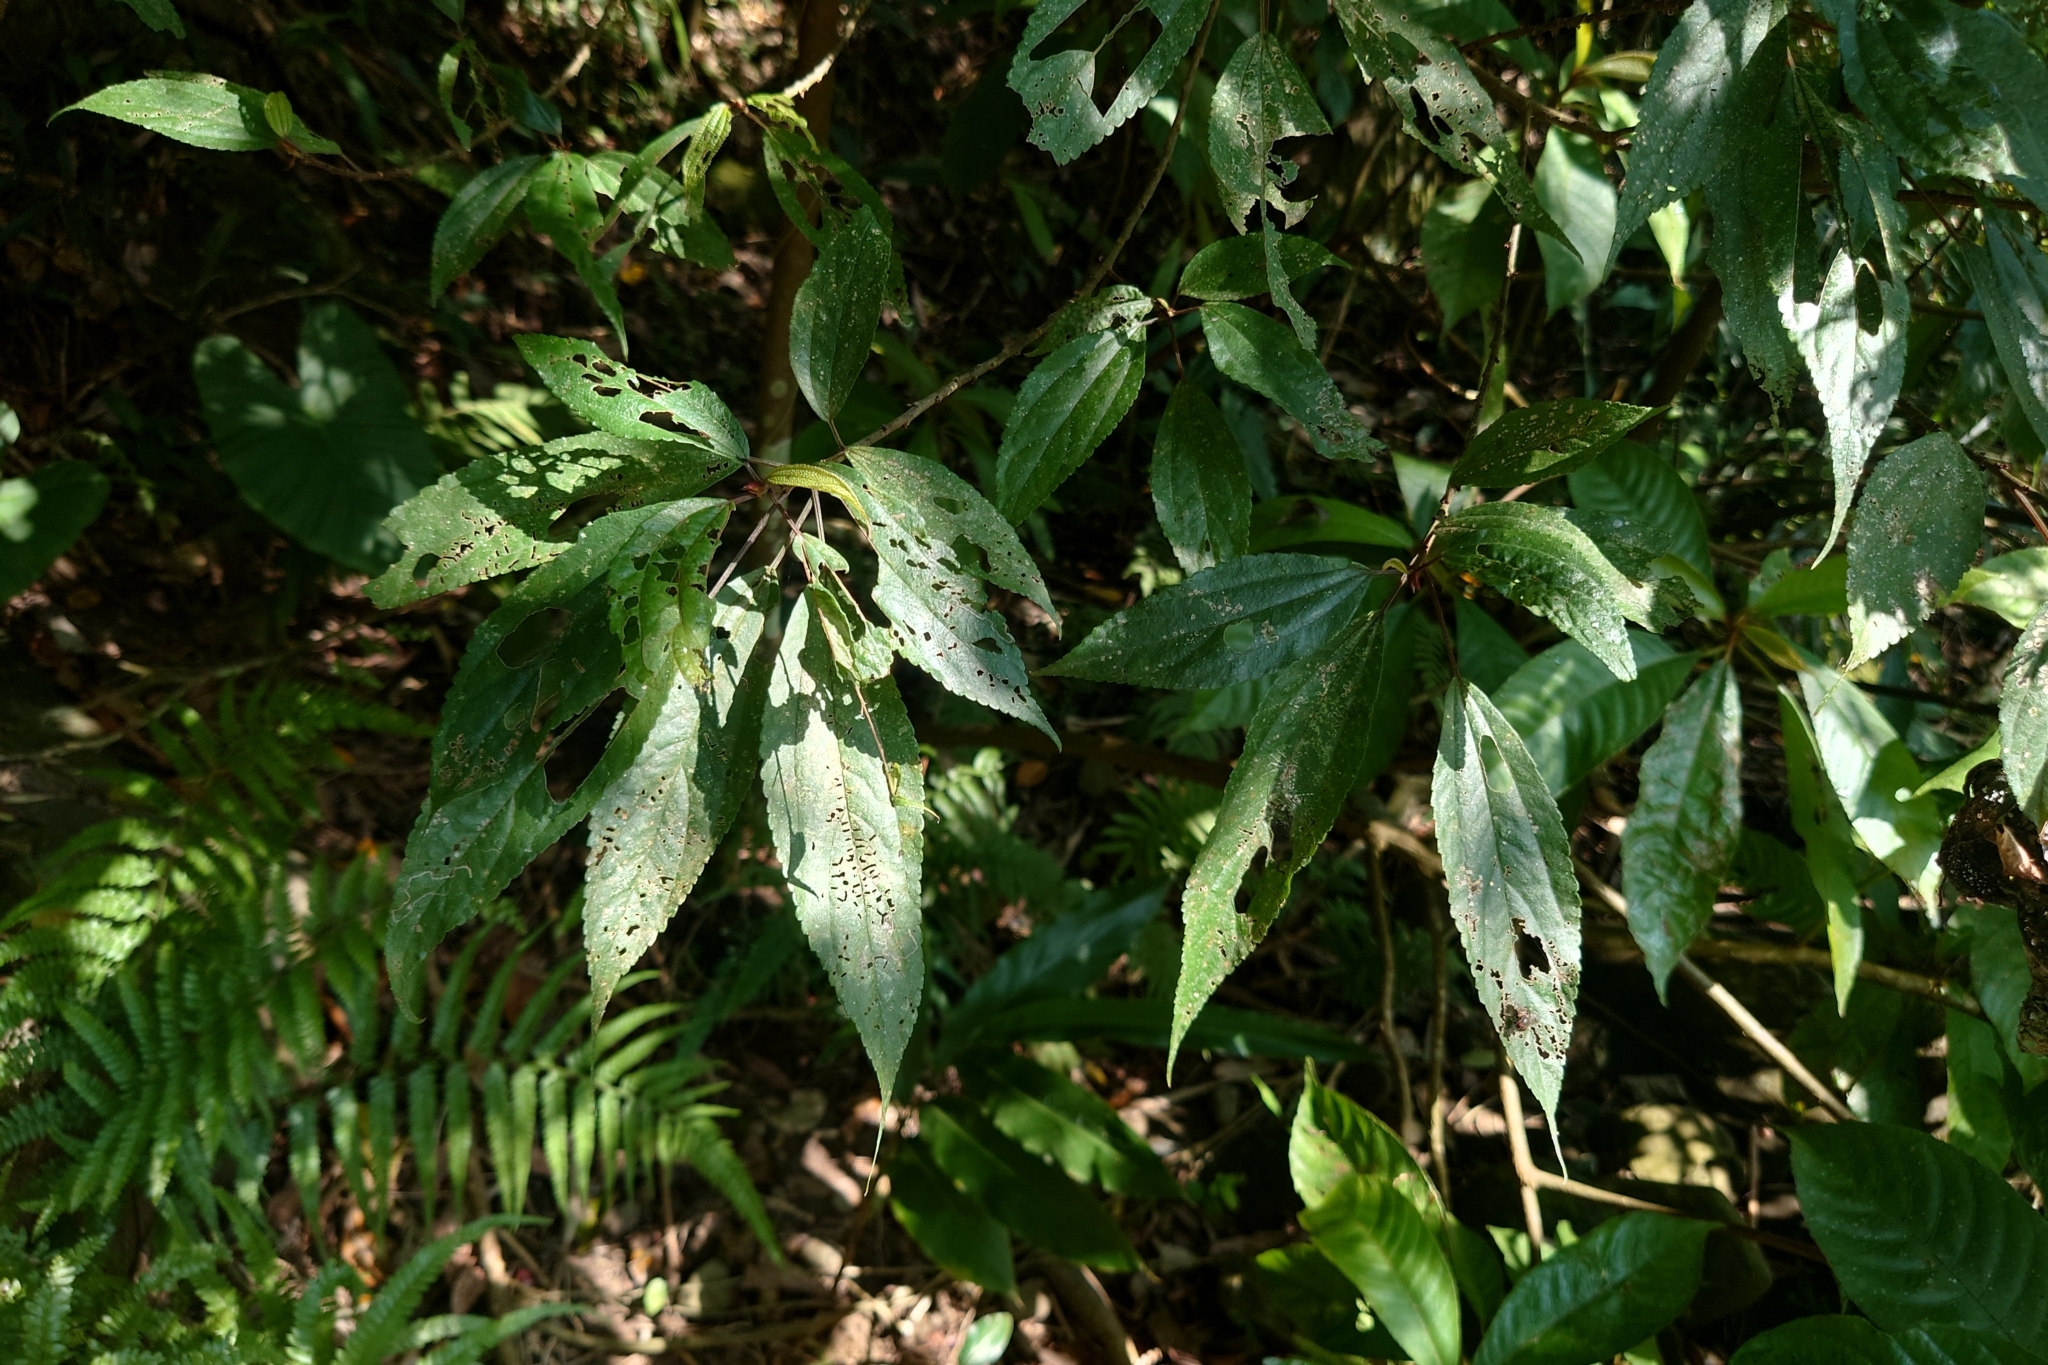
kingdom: Plantae
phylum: Tracheophyta
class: Magnoliopsida
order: Rosales
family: Urticaceae
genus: Oreocnide
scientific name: Oreocnide pedunculata
